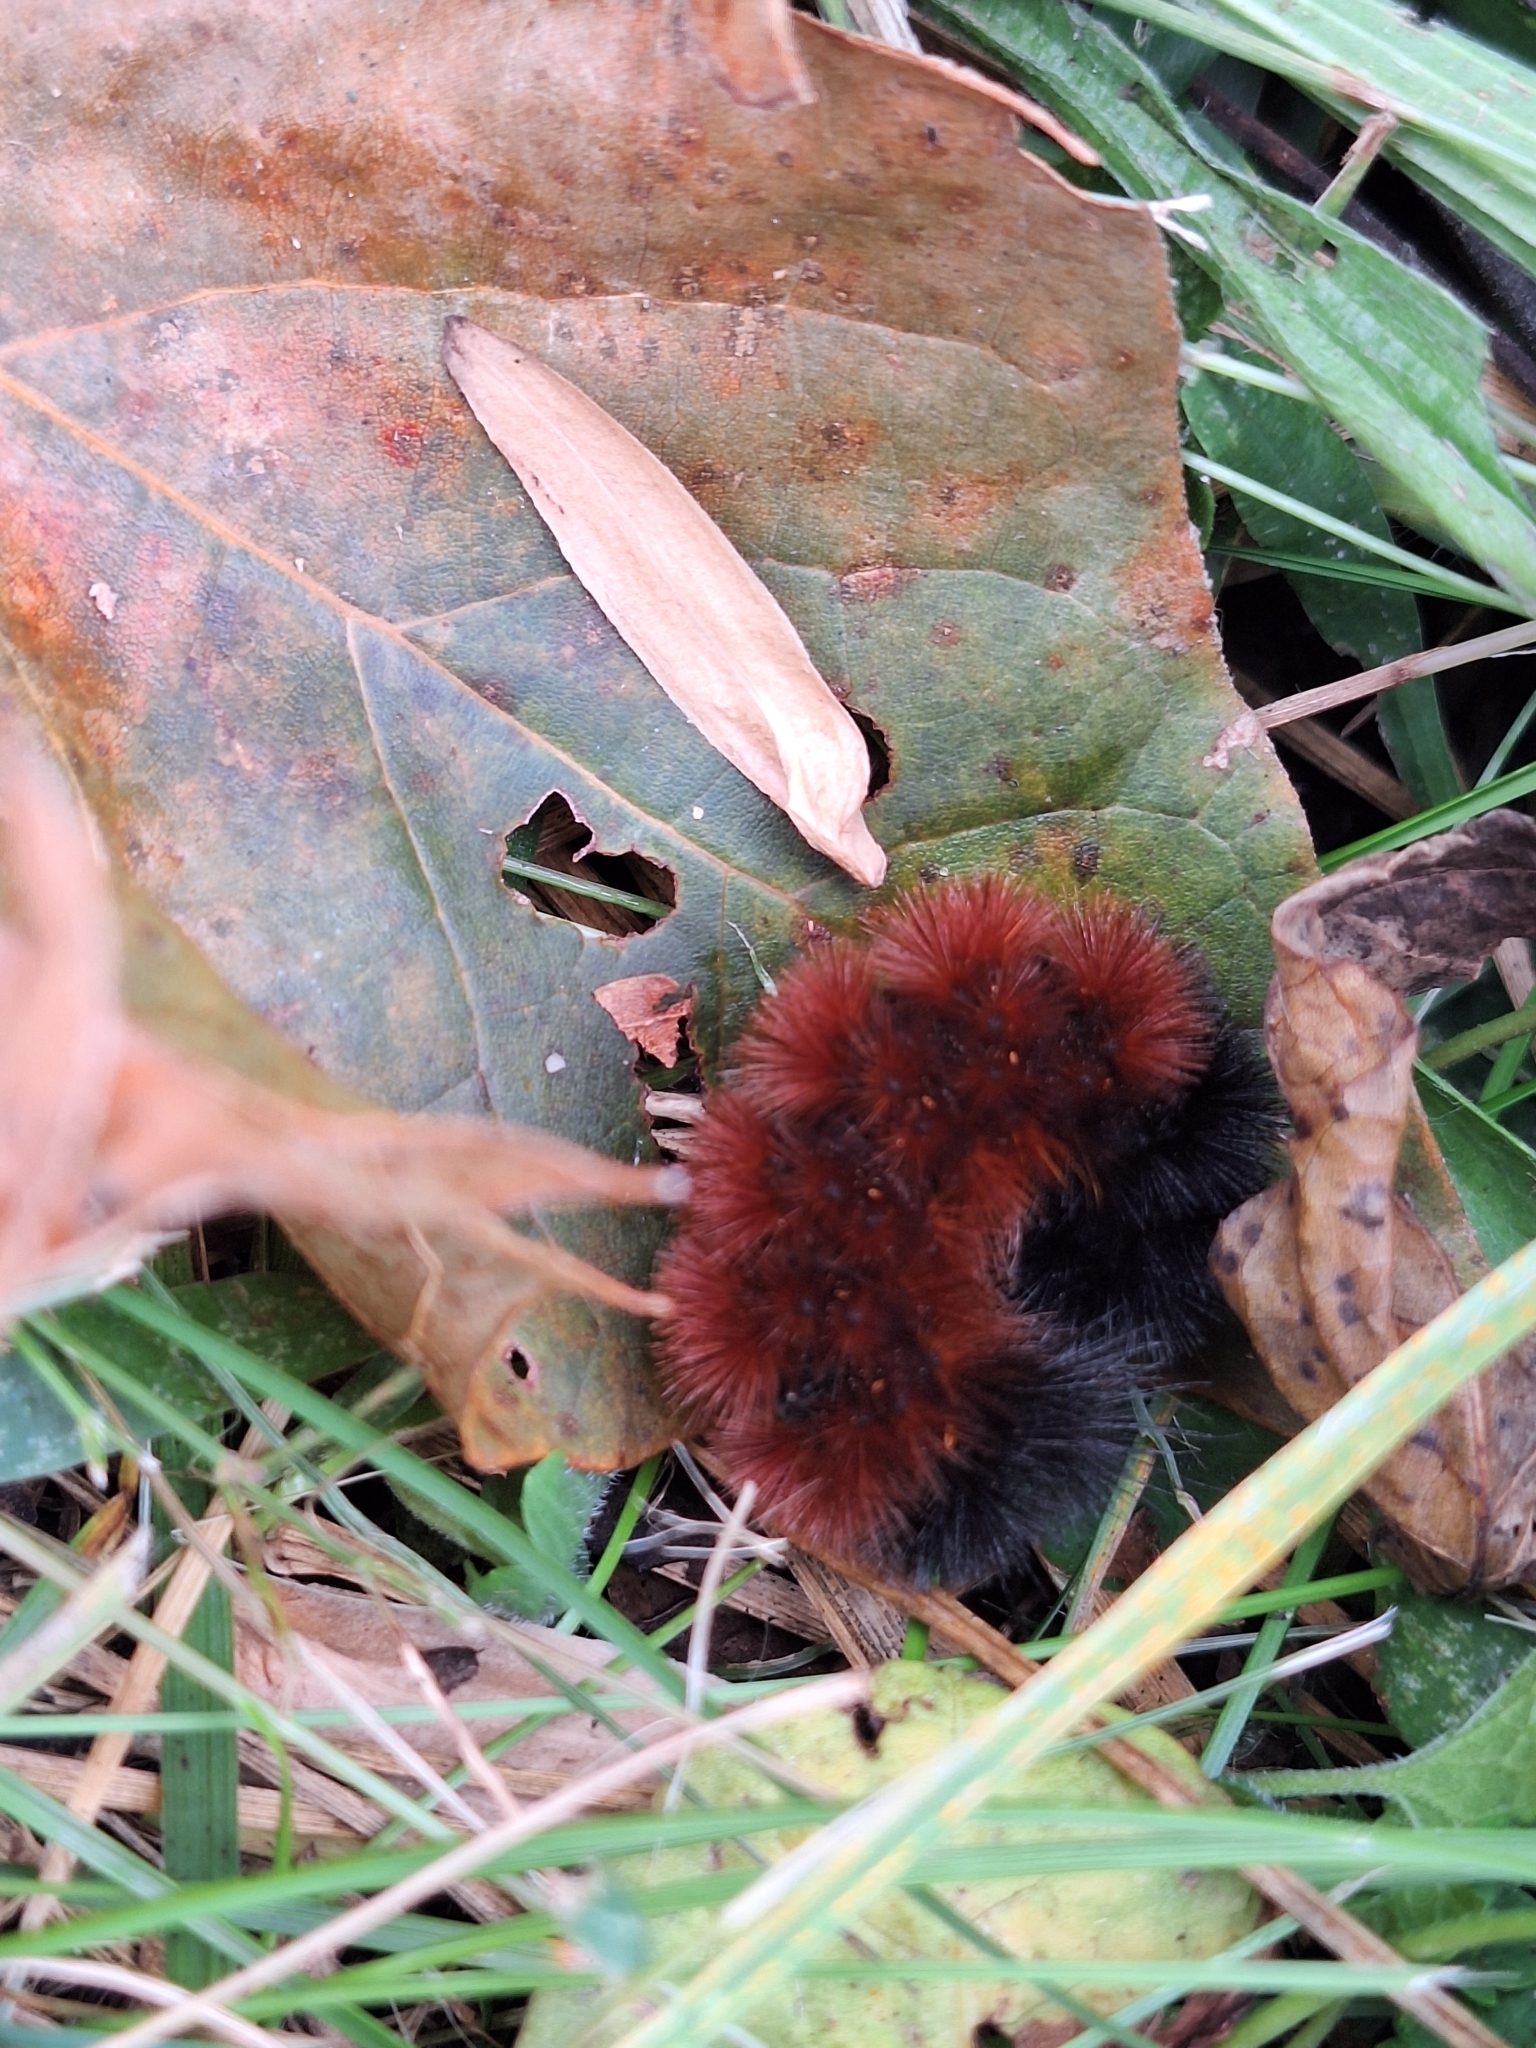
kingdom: Animalia
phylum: Arthropoda
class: Insecta
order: Lepidoptera
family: Erebidae
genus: Pyrrharctia
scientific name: Pyrrharctia isabella
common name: Isabella tiger moth
